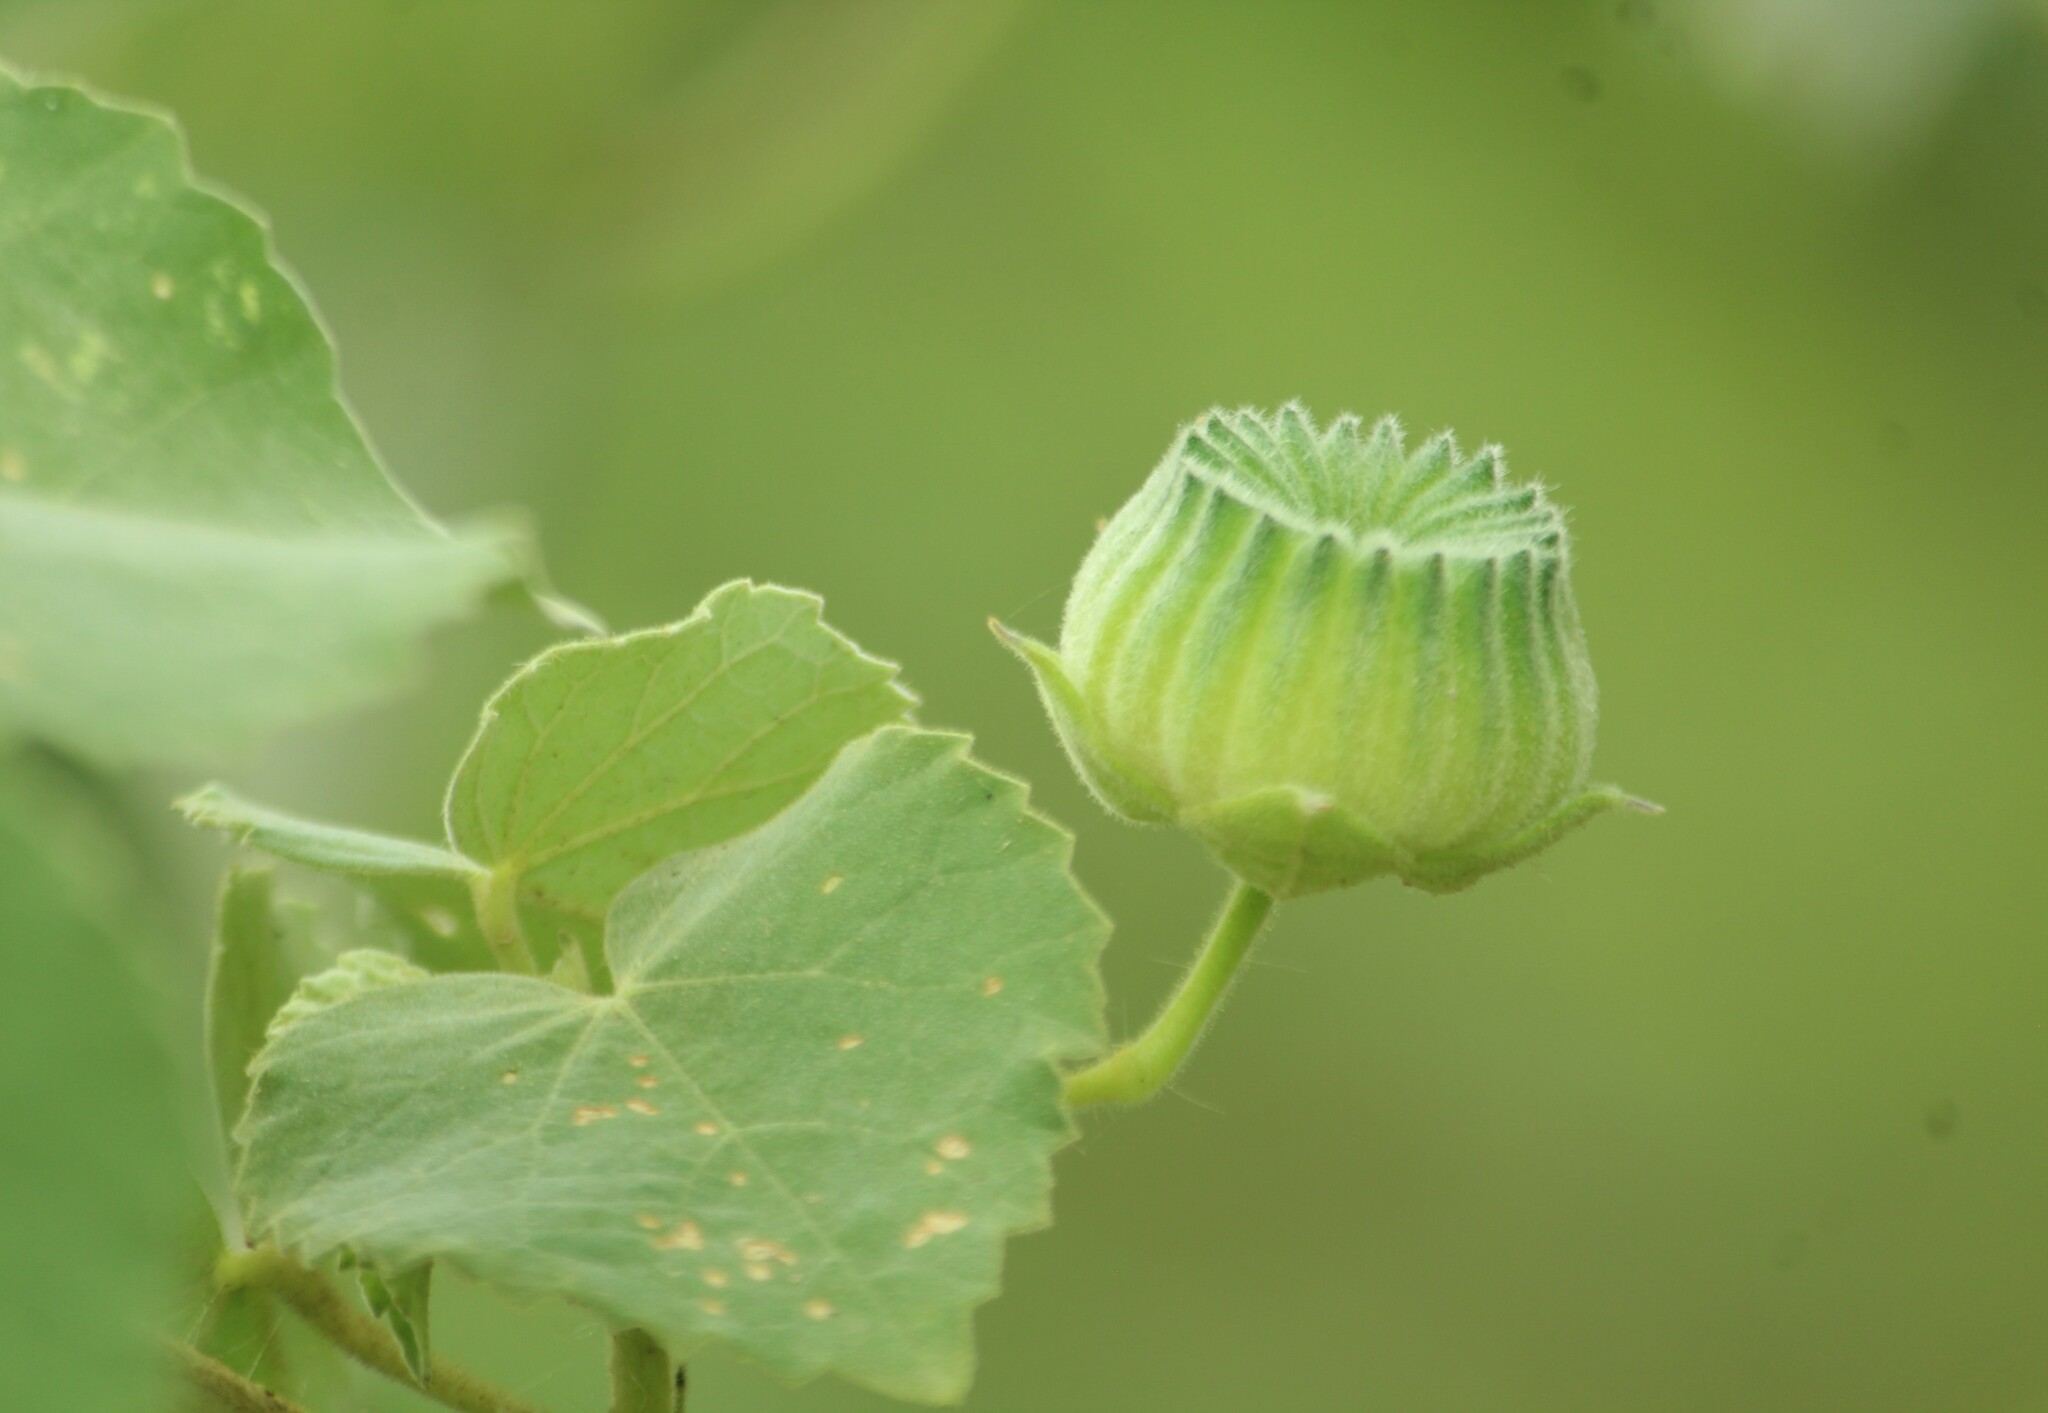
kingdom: Plantae
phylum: Tracheophyta
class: Magnoliopsida
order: Malvales
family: Malvaceae
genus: Abutilon
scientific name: Abutilon indicum
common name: Indian abutilon
